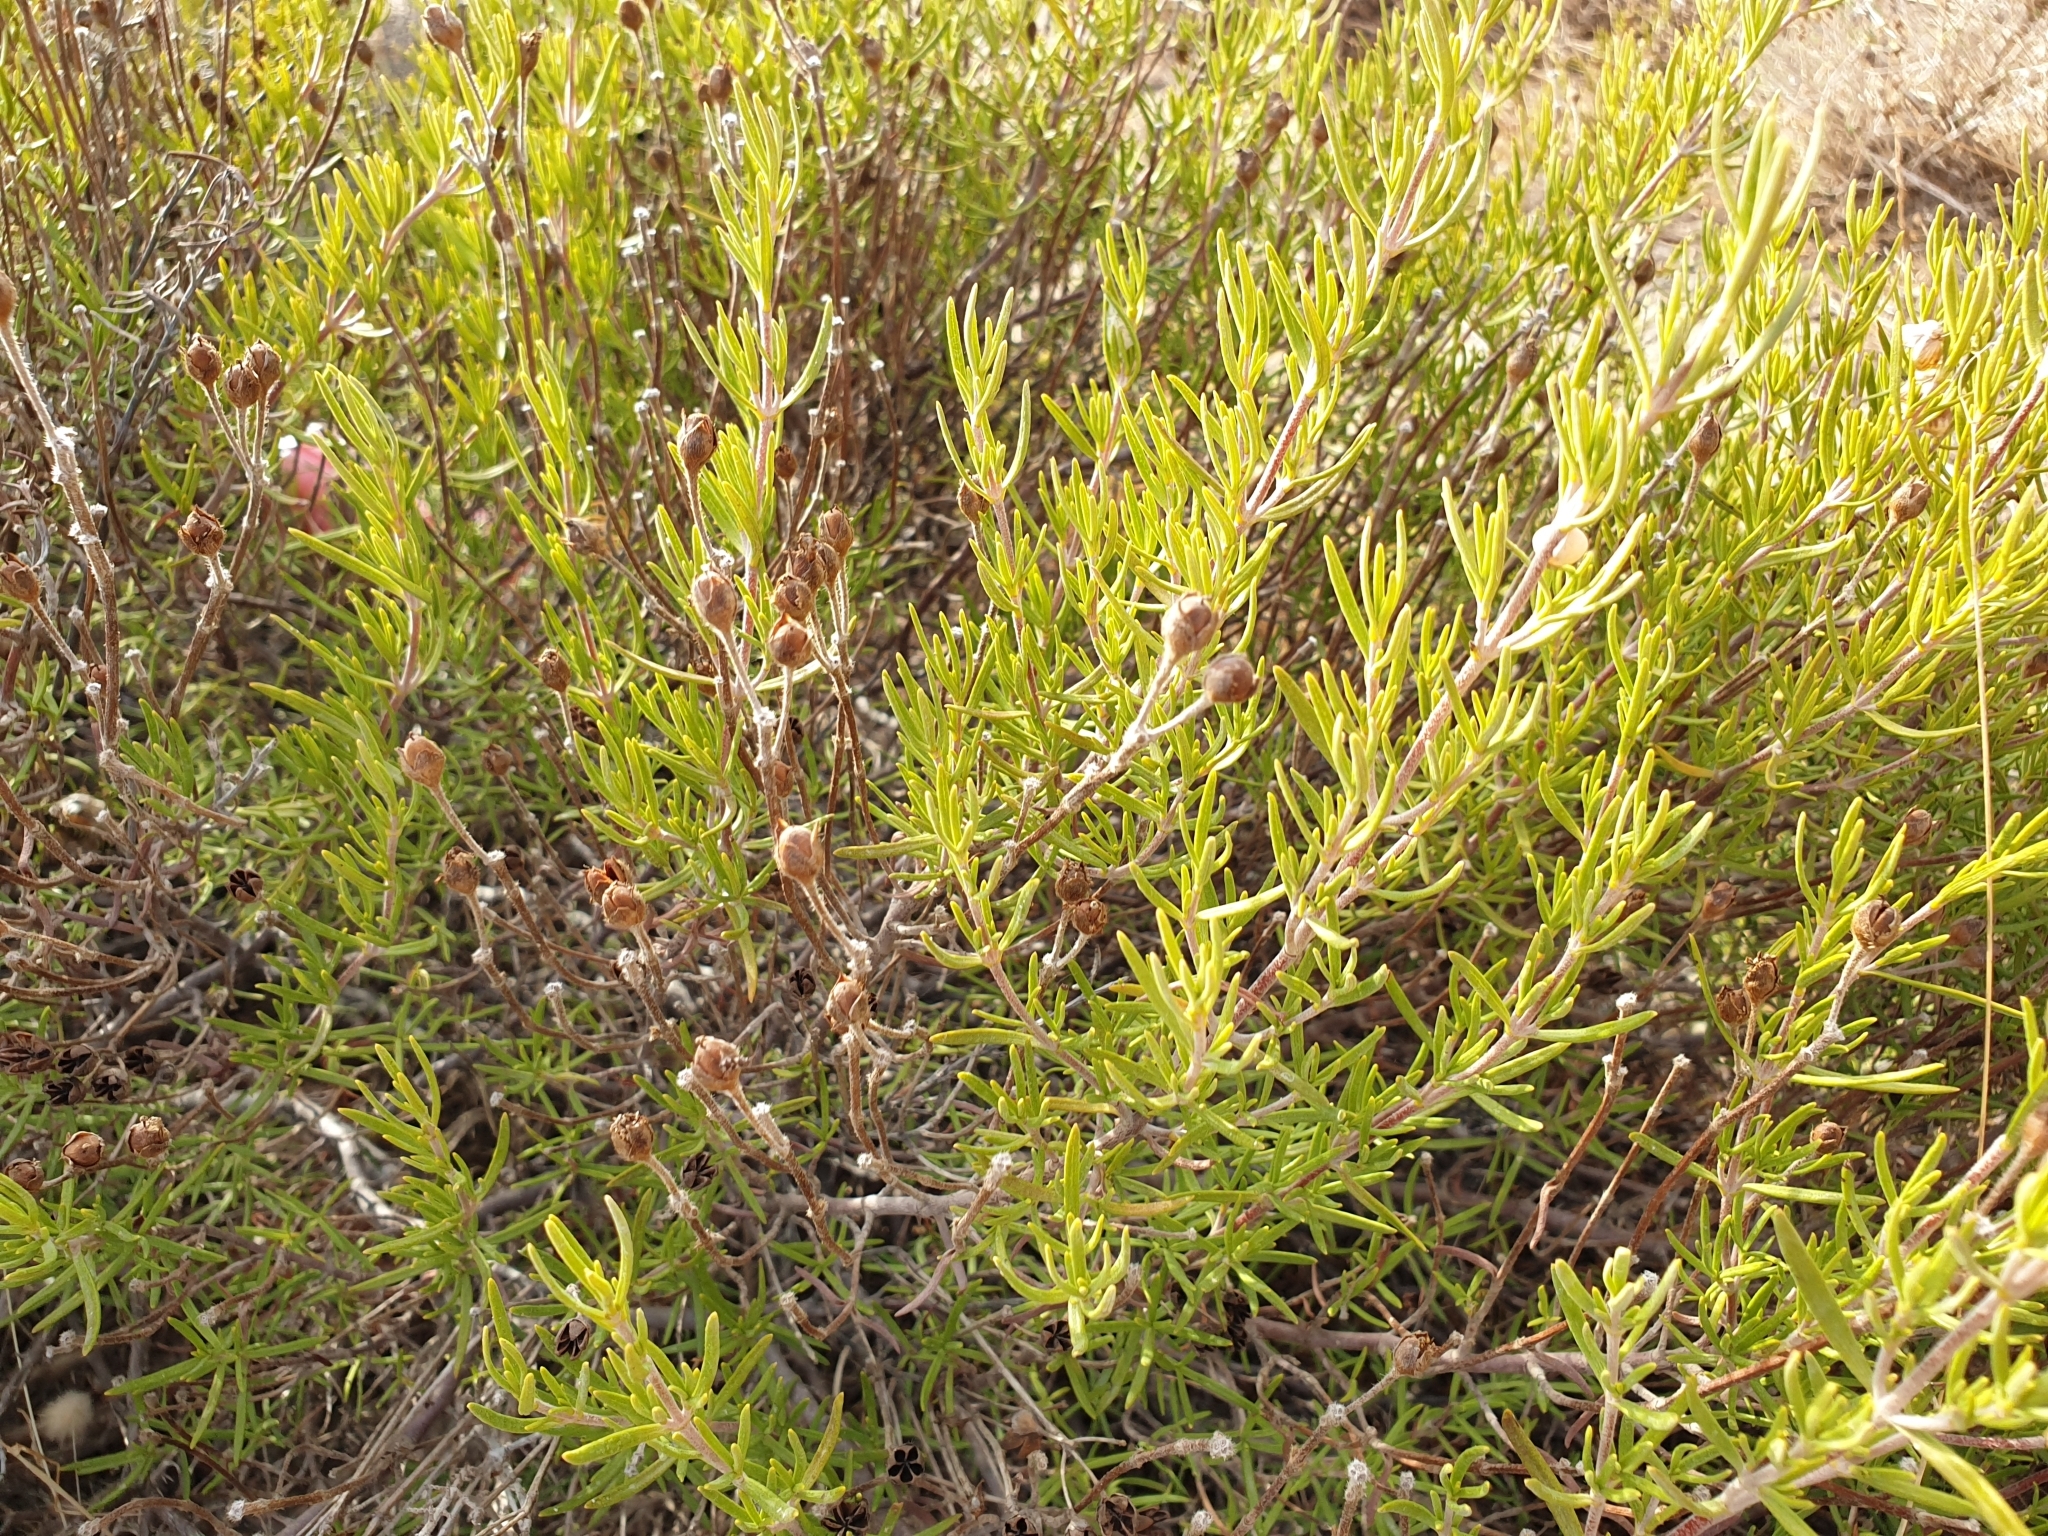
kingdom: Plantae
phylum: Tracheophyta
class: Magnoliopsida
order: Malvales
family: Cistaceae
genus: Cistus
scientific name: Cistus clusii
